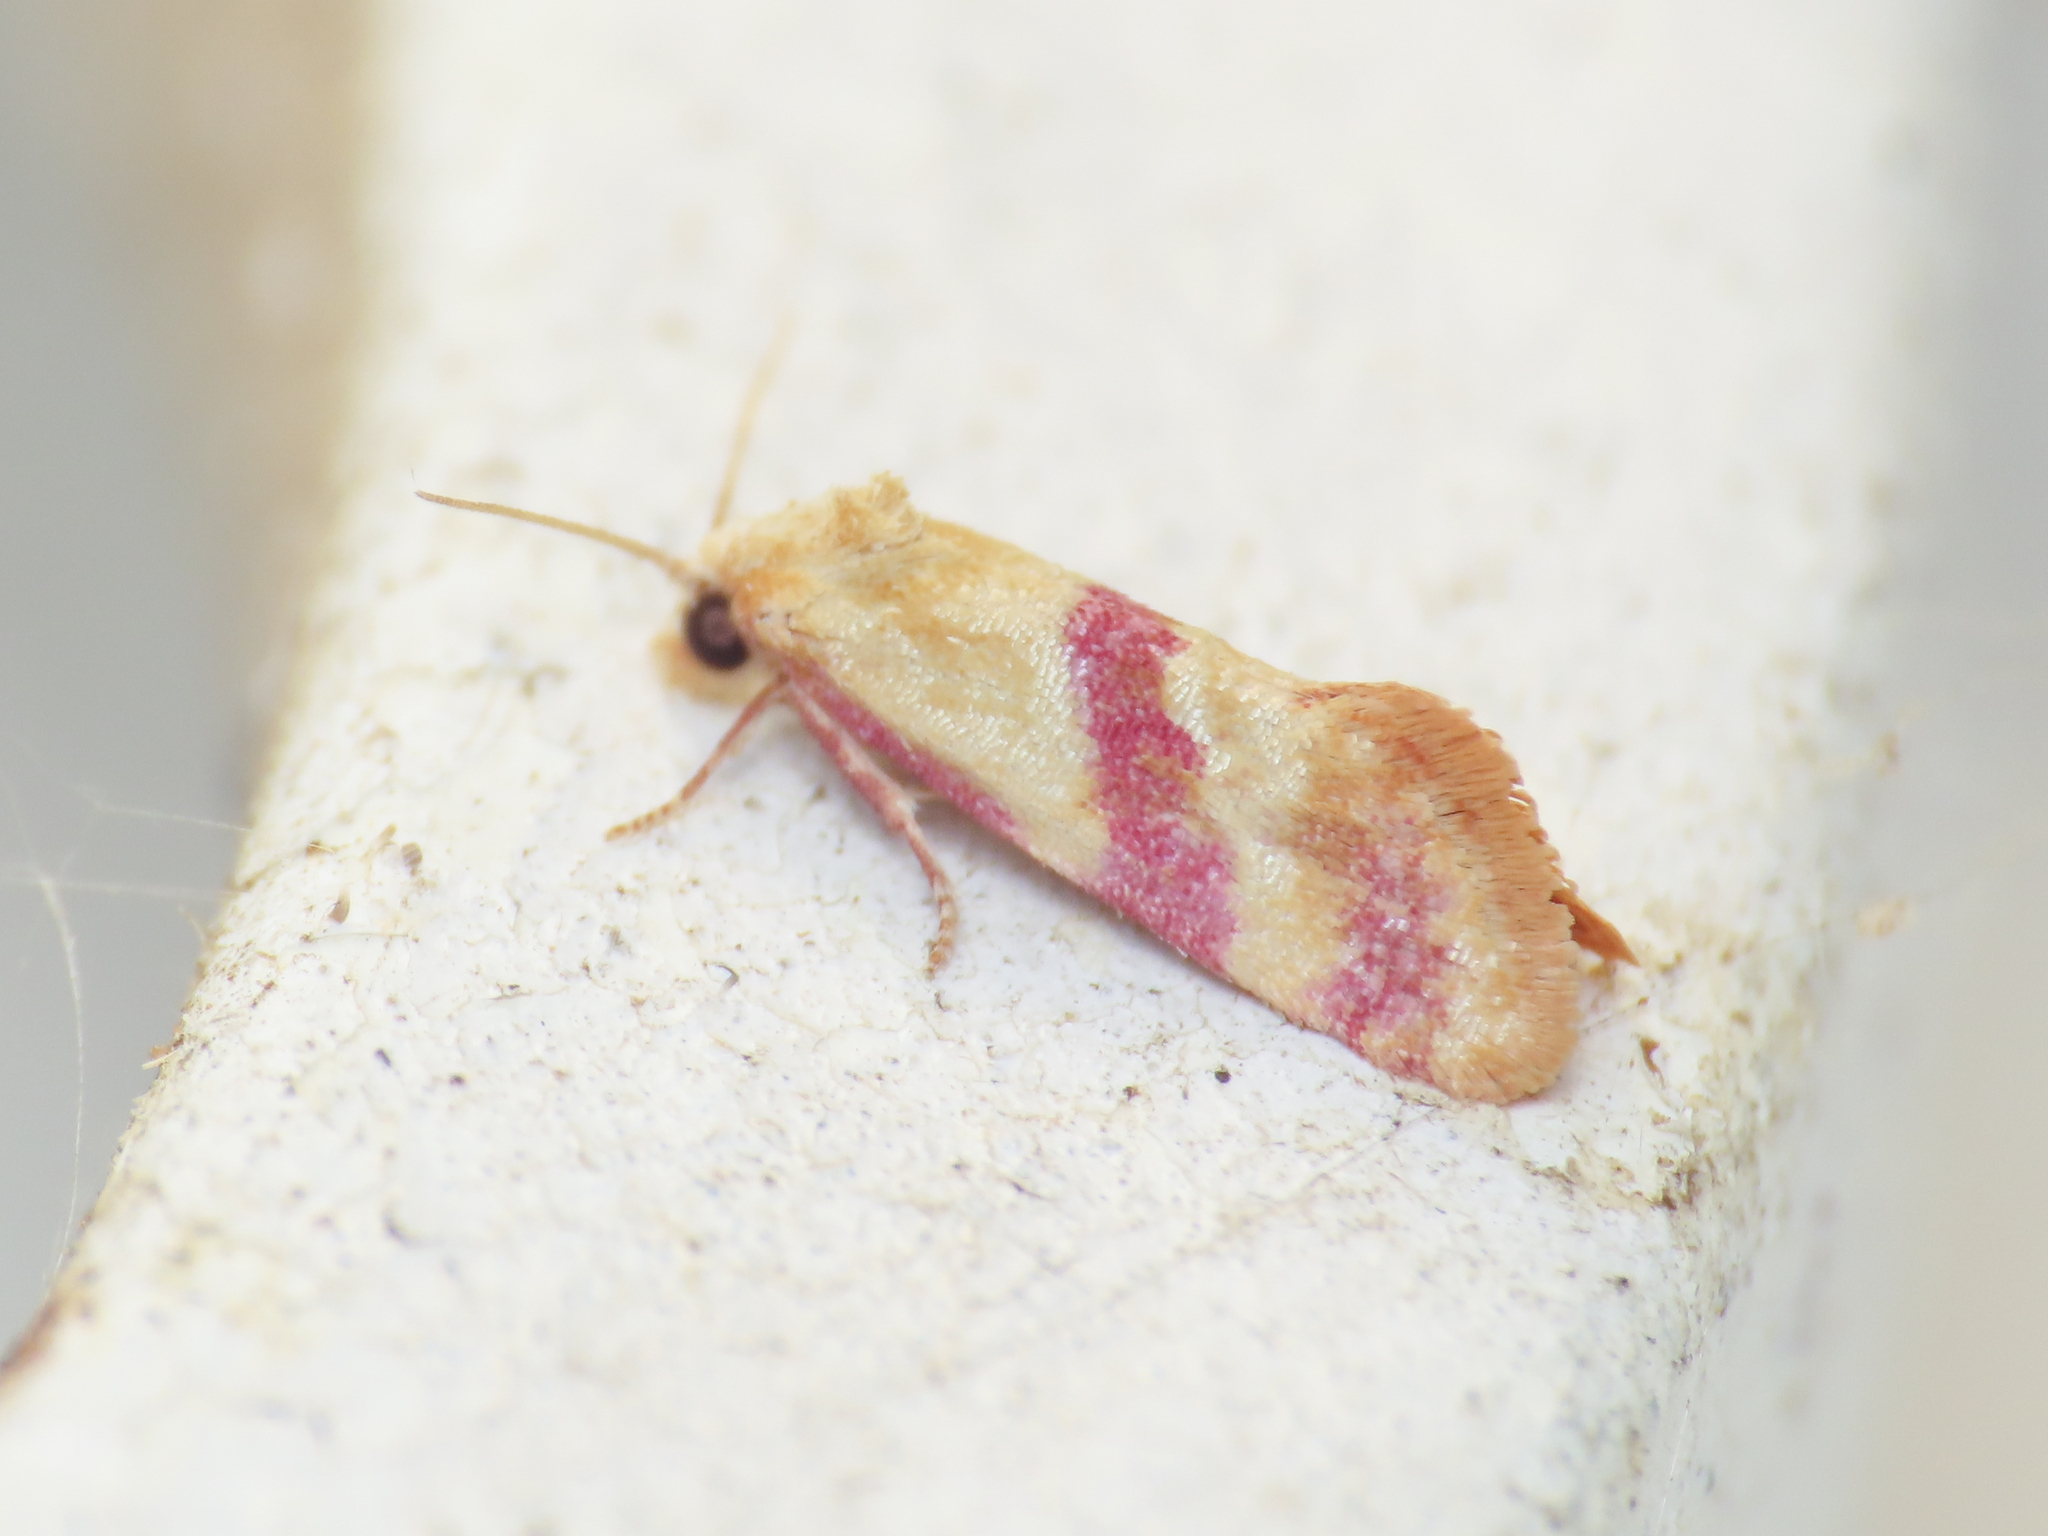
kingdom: Animalia
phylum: Arthropoda
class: Insecta
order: Lepidoptera
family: Tortricidae
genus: Diceratura
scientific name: Diceratura roseofasciana
